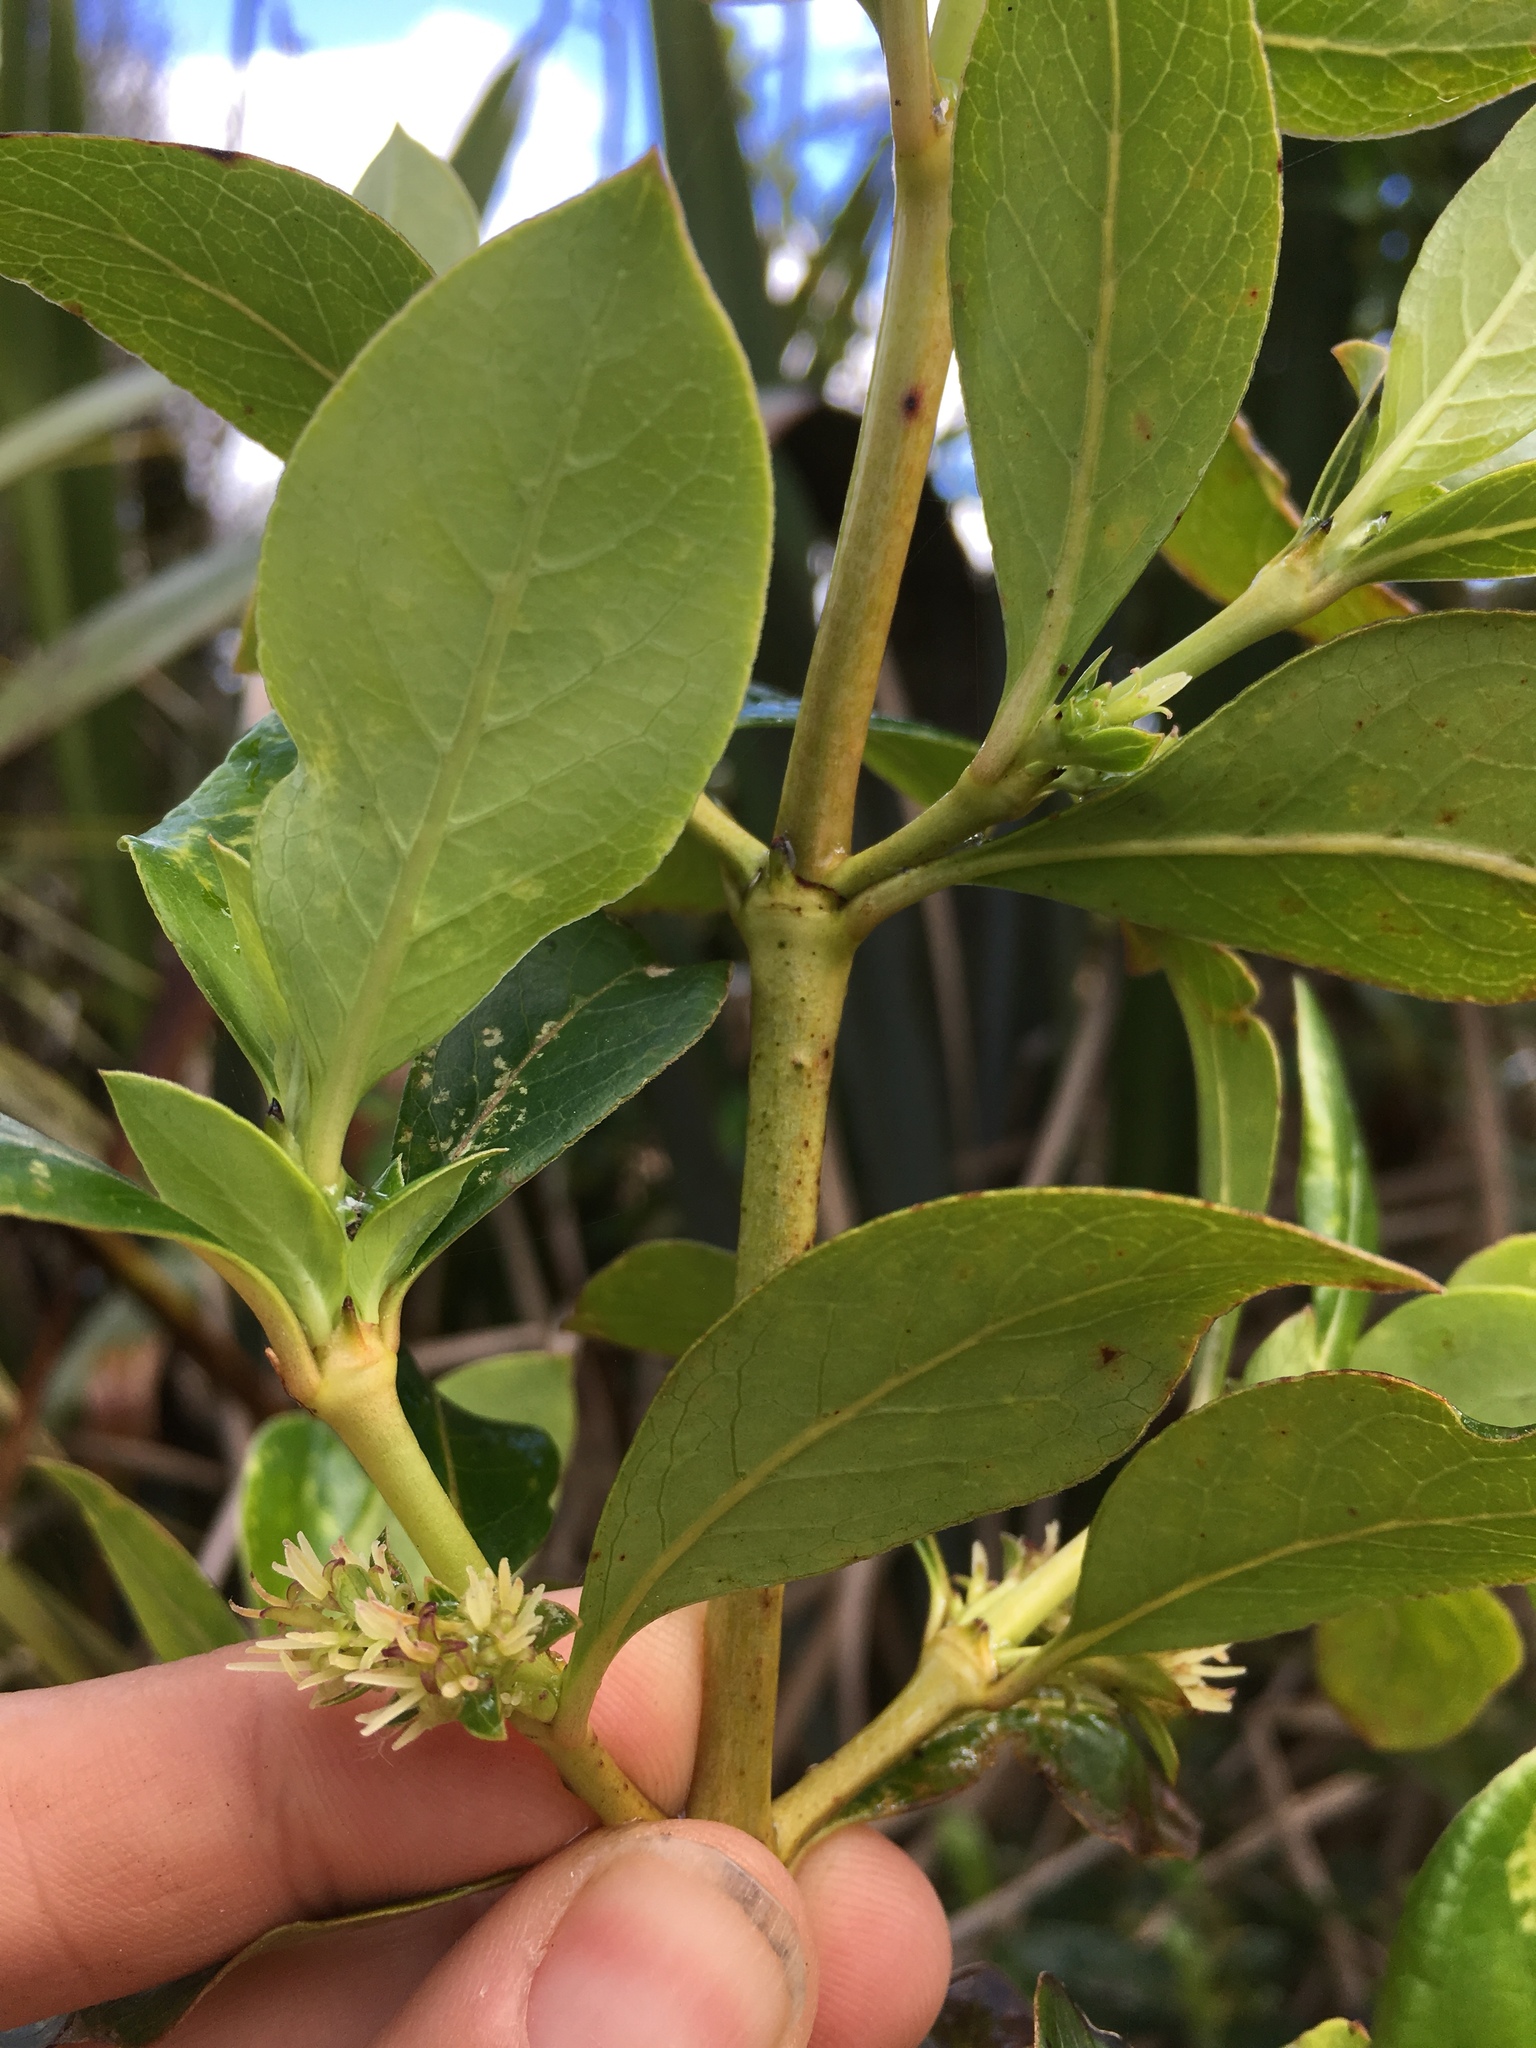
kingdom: Plantae
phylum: Tracheophyta
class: Magnoliopsida
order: Gentianales
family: Rubiaceae
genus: Coprosma
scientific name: Coprosma robusta
